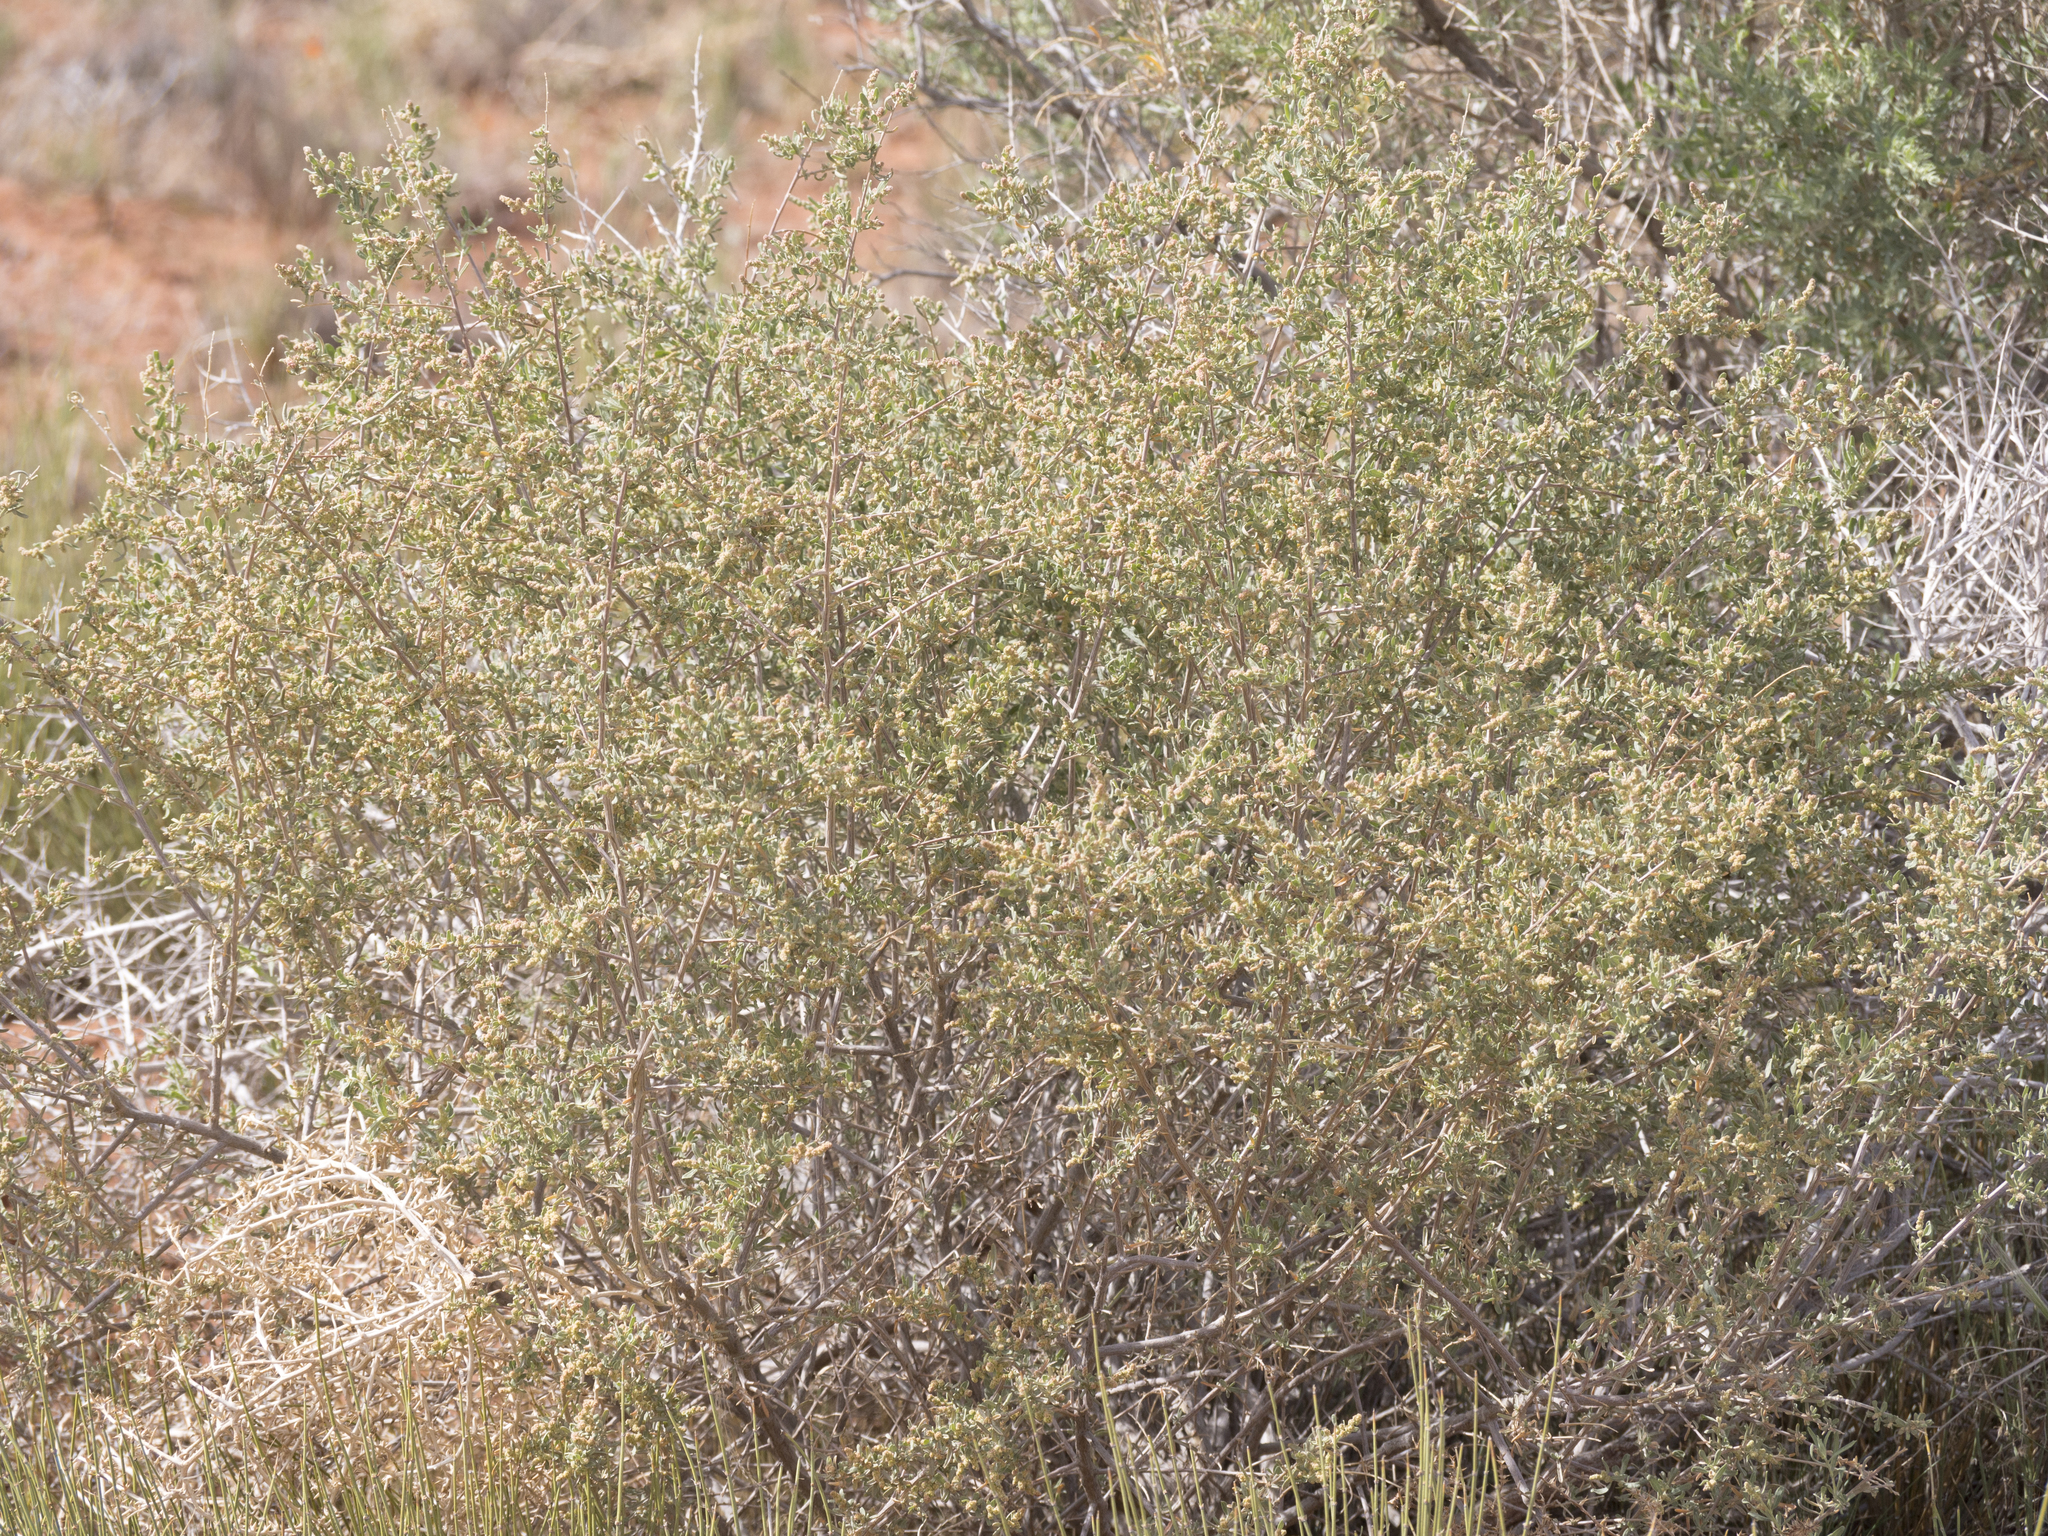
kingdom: Plantae
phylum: Tracheophyta
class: Magnoliopsida
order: Caryophyllales
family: Amaranthaceae
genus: Atriplex
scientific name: Atriplex canescens
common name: Four-wing saltbush
